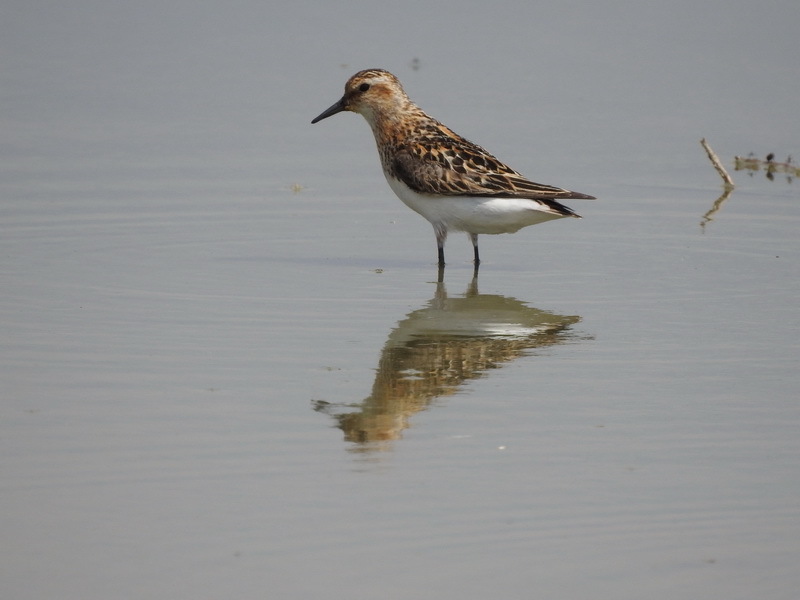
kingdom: Animalia
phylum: Chordata
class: Aves
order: Charadriiformes
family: Scolopacidae
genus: Calidris
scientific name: Calidris minuta
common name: Little stint
